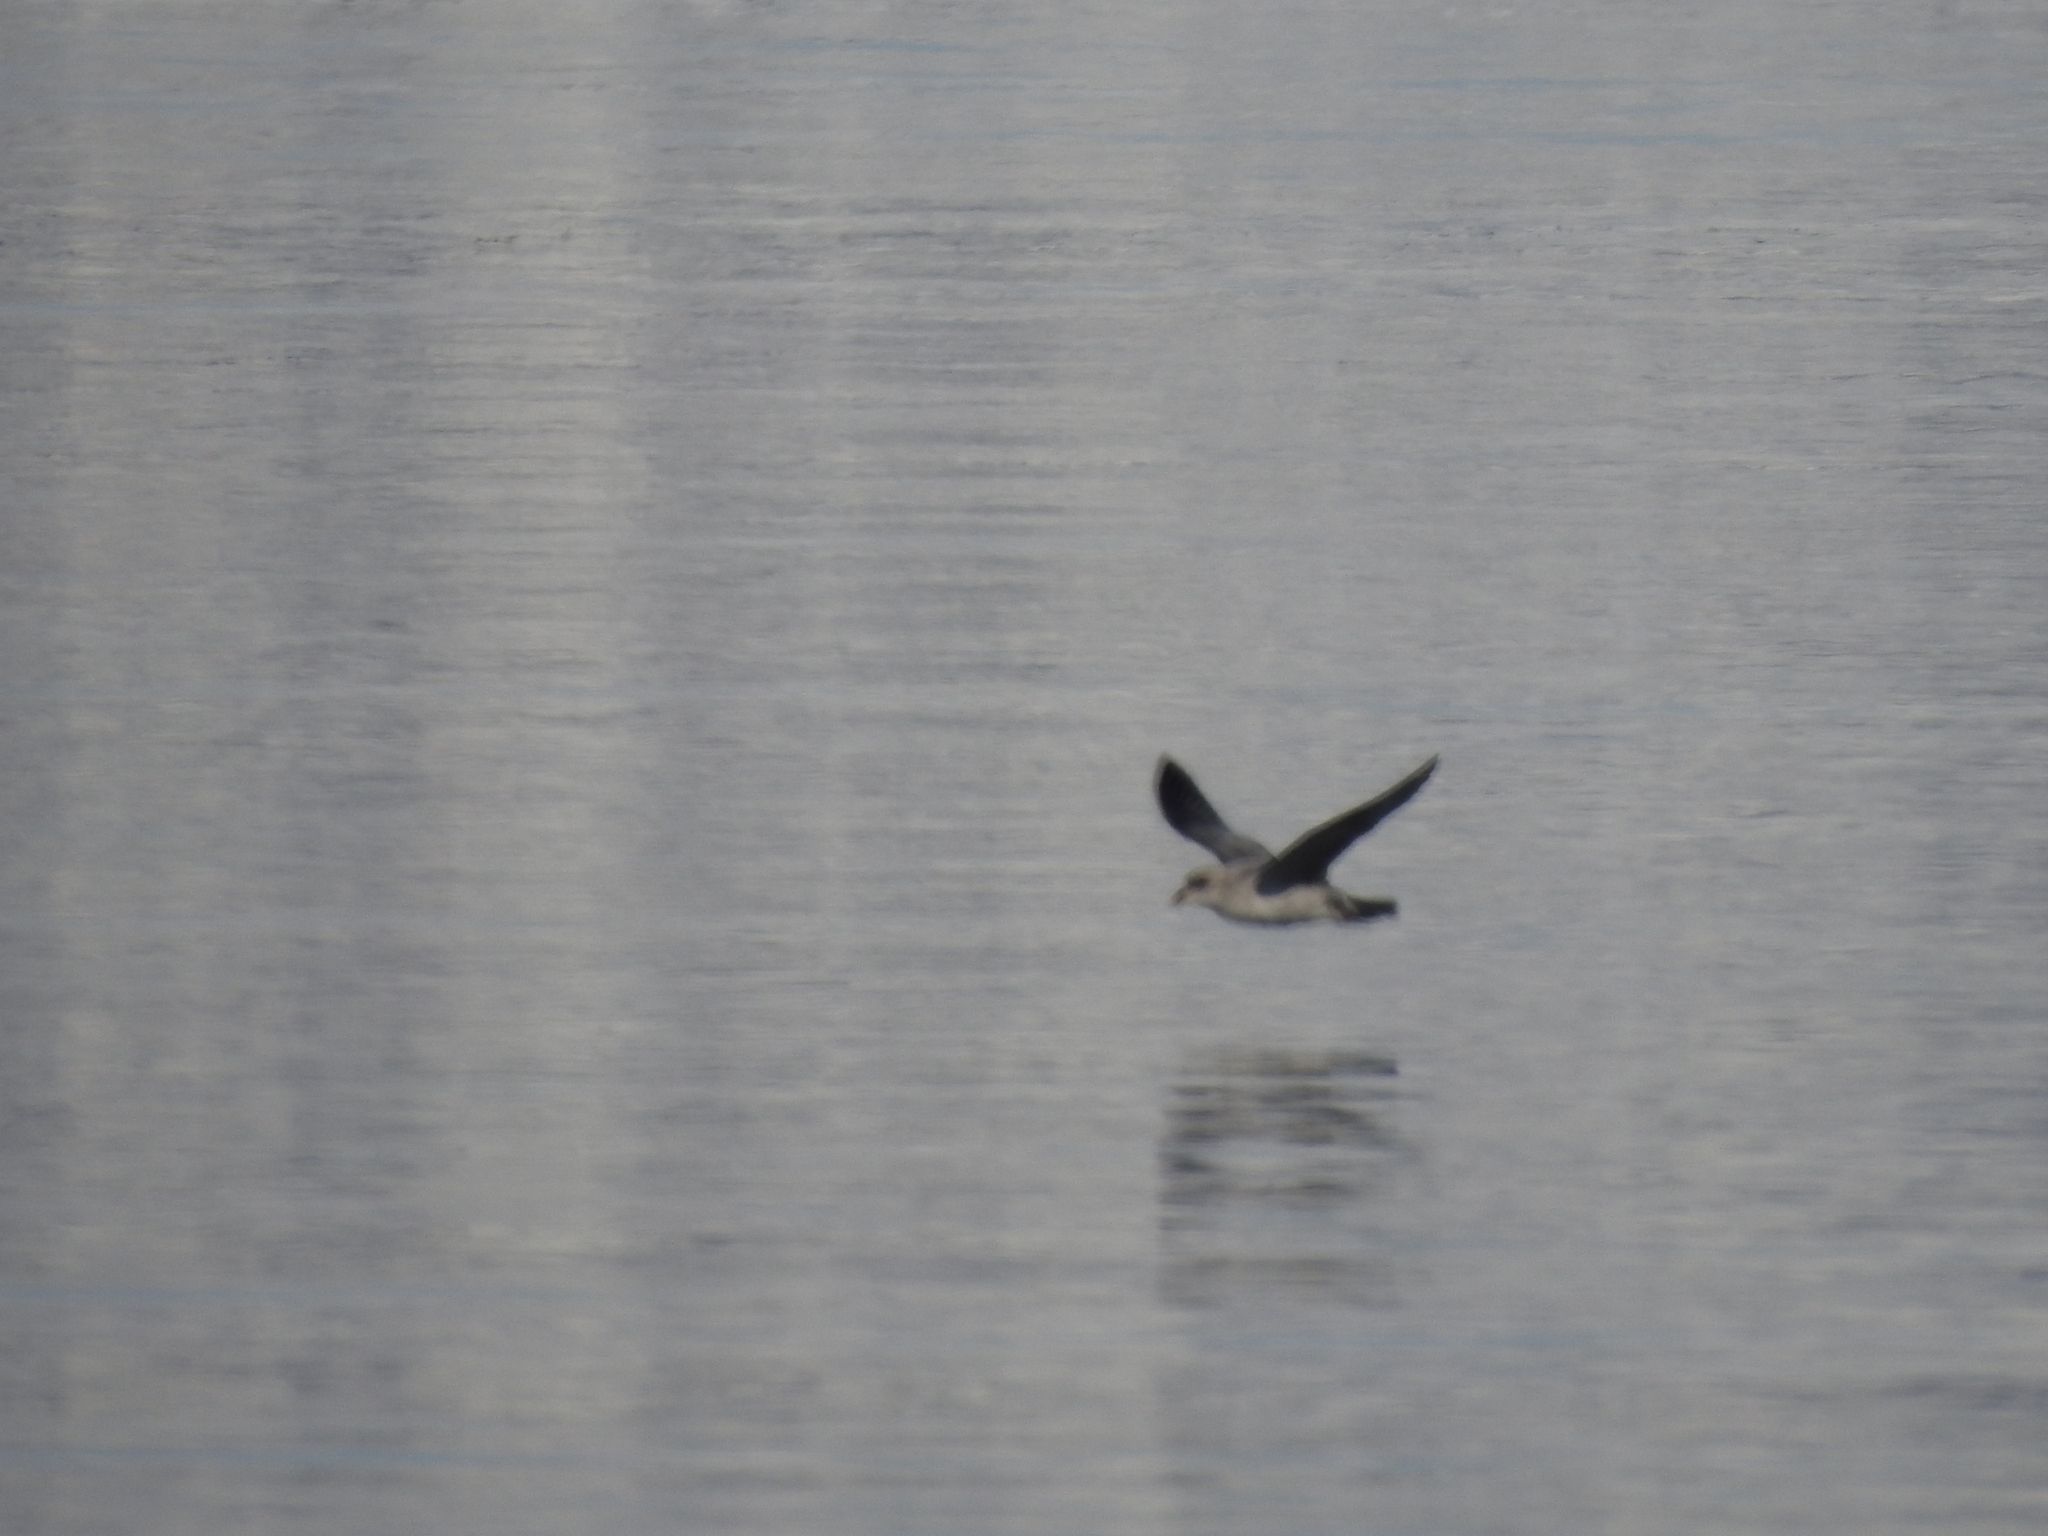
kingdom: Animalia
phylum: Chordata
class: Aves
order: Procellariiformes
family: Procellariidae
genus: Fulmarus
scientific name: Fulmarus glacialis
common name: Northern fulmar
